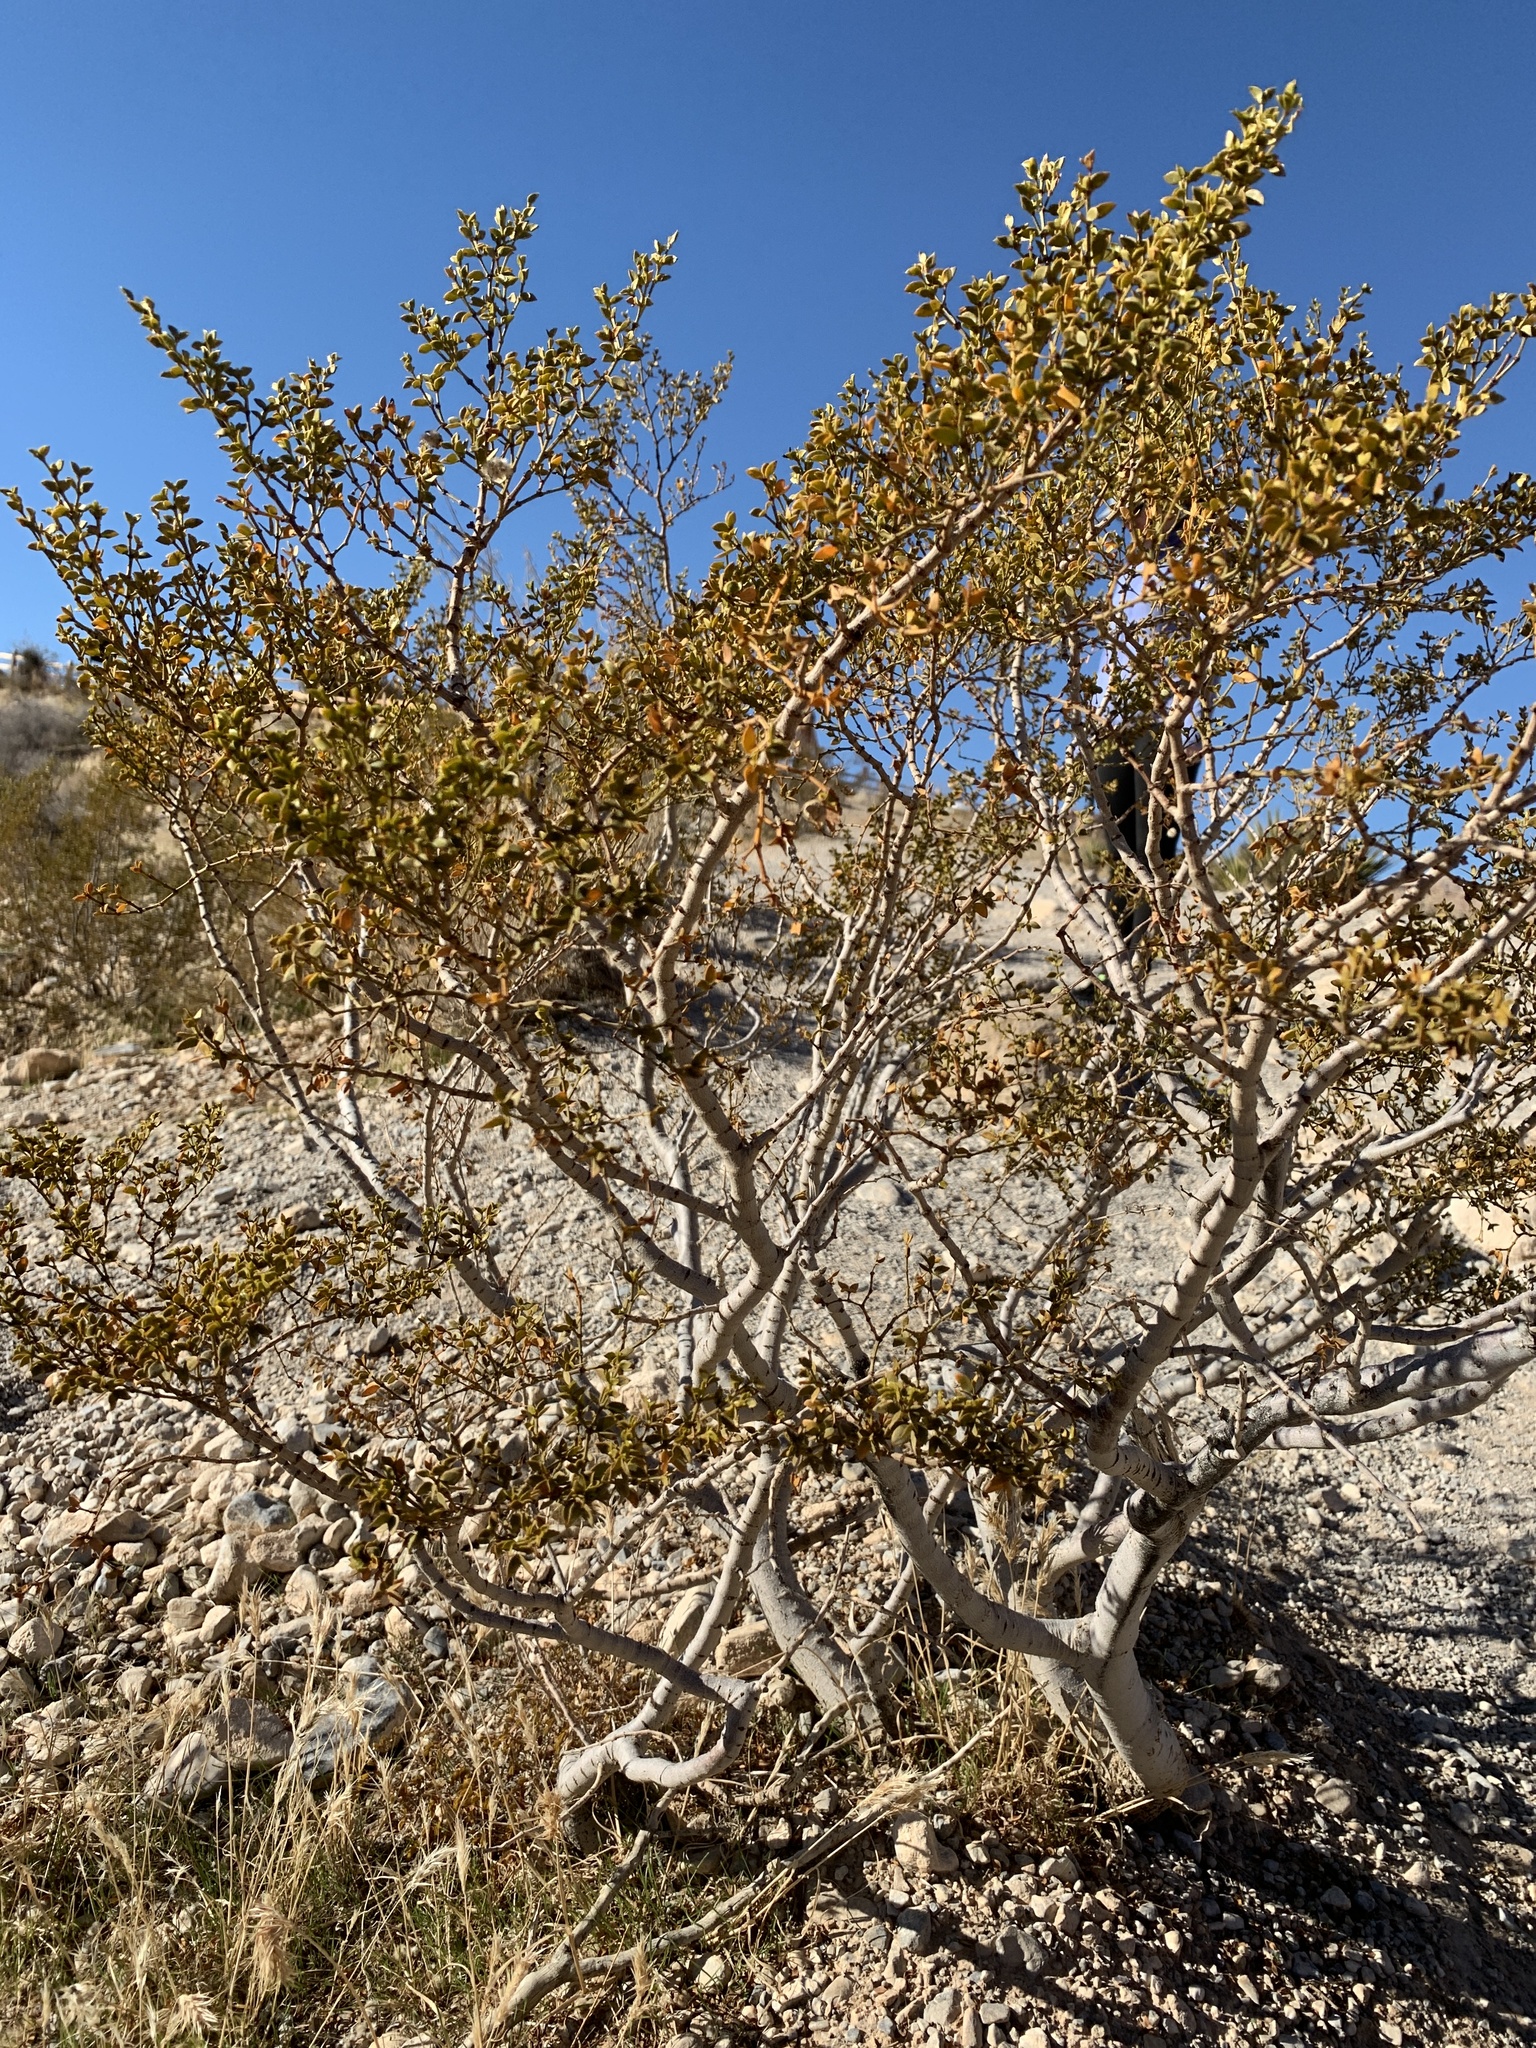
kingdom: Plantae
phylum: Tracheophyta
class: Magnoliopsida
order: Zygophyllales
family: Zygophyllaceae
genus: Larrea
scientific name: Larrea tridentata
